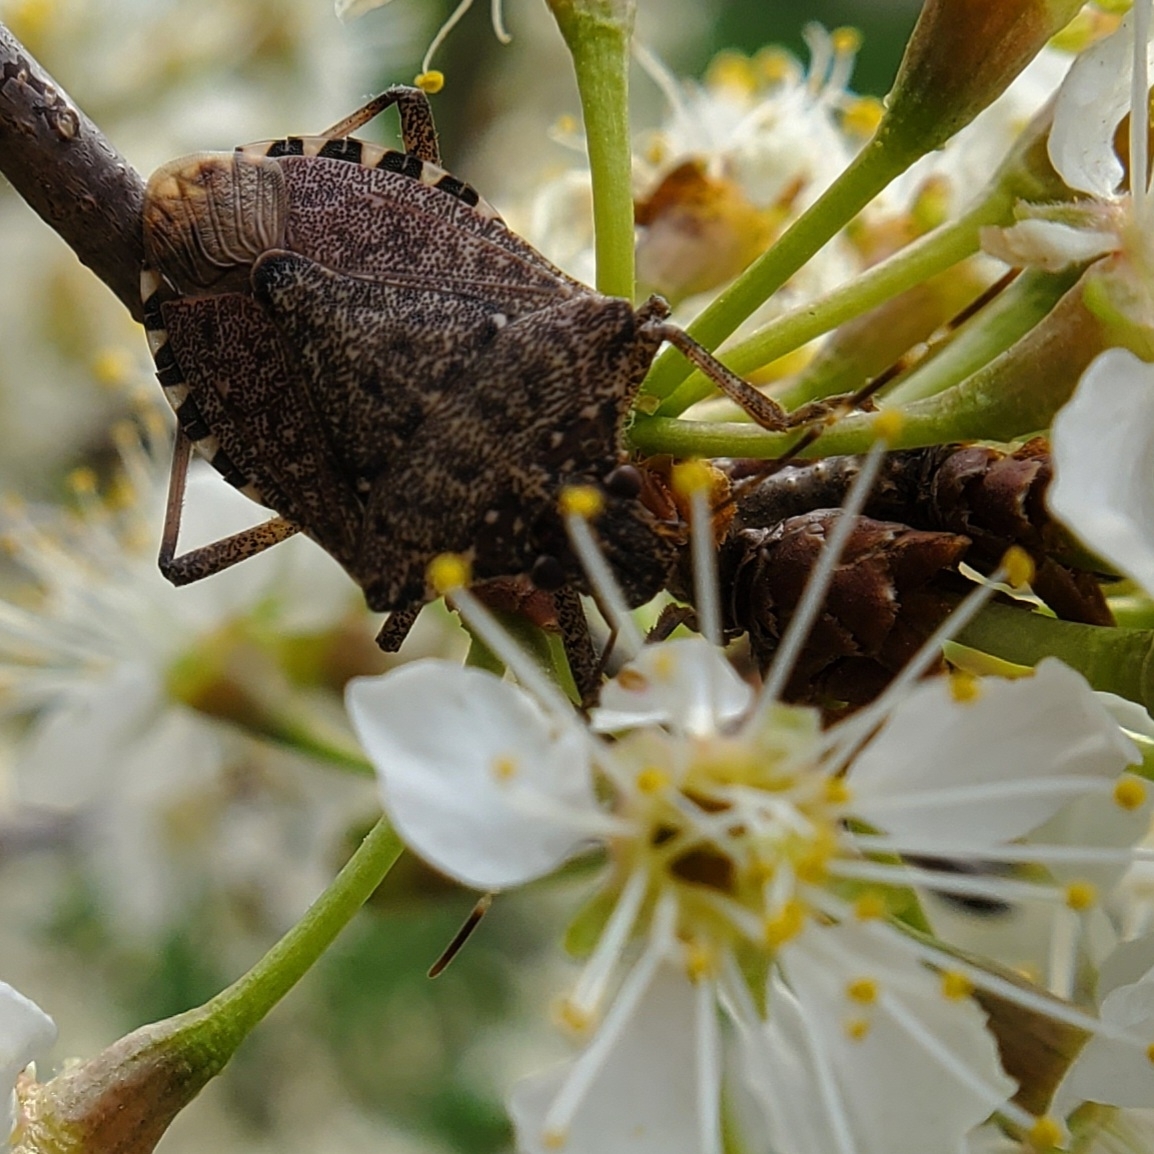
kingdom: Animalia
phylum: Arthropoda
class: Insecta
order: Hemiptera
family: Pentatomidae
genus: Halyomorpha
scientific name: Halyomorpha halys
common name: Brown marmorated stink bug
